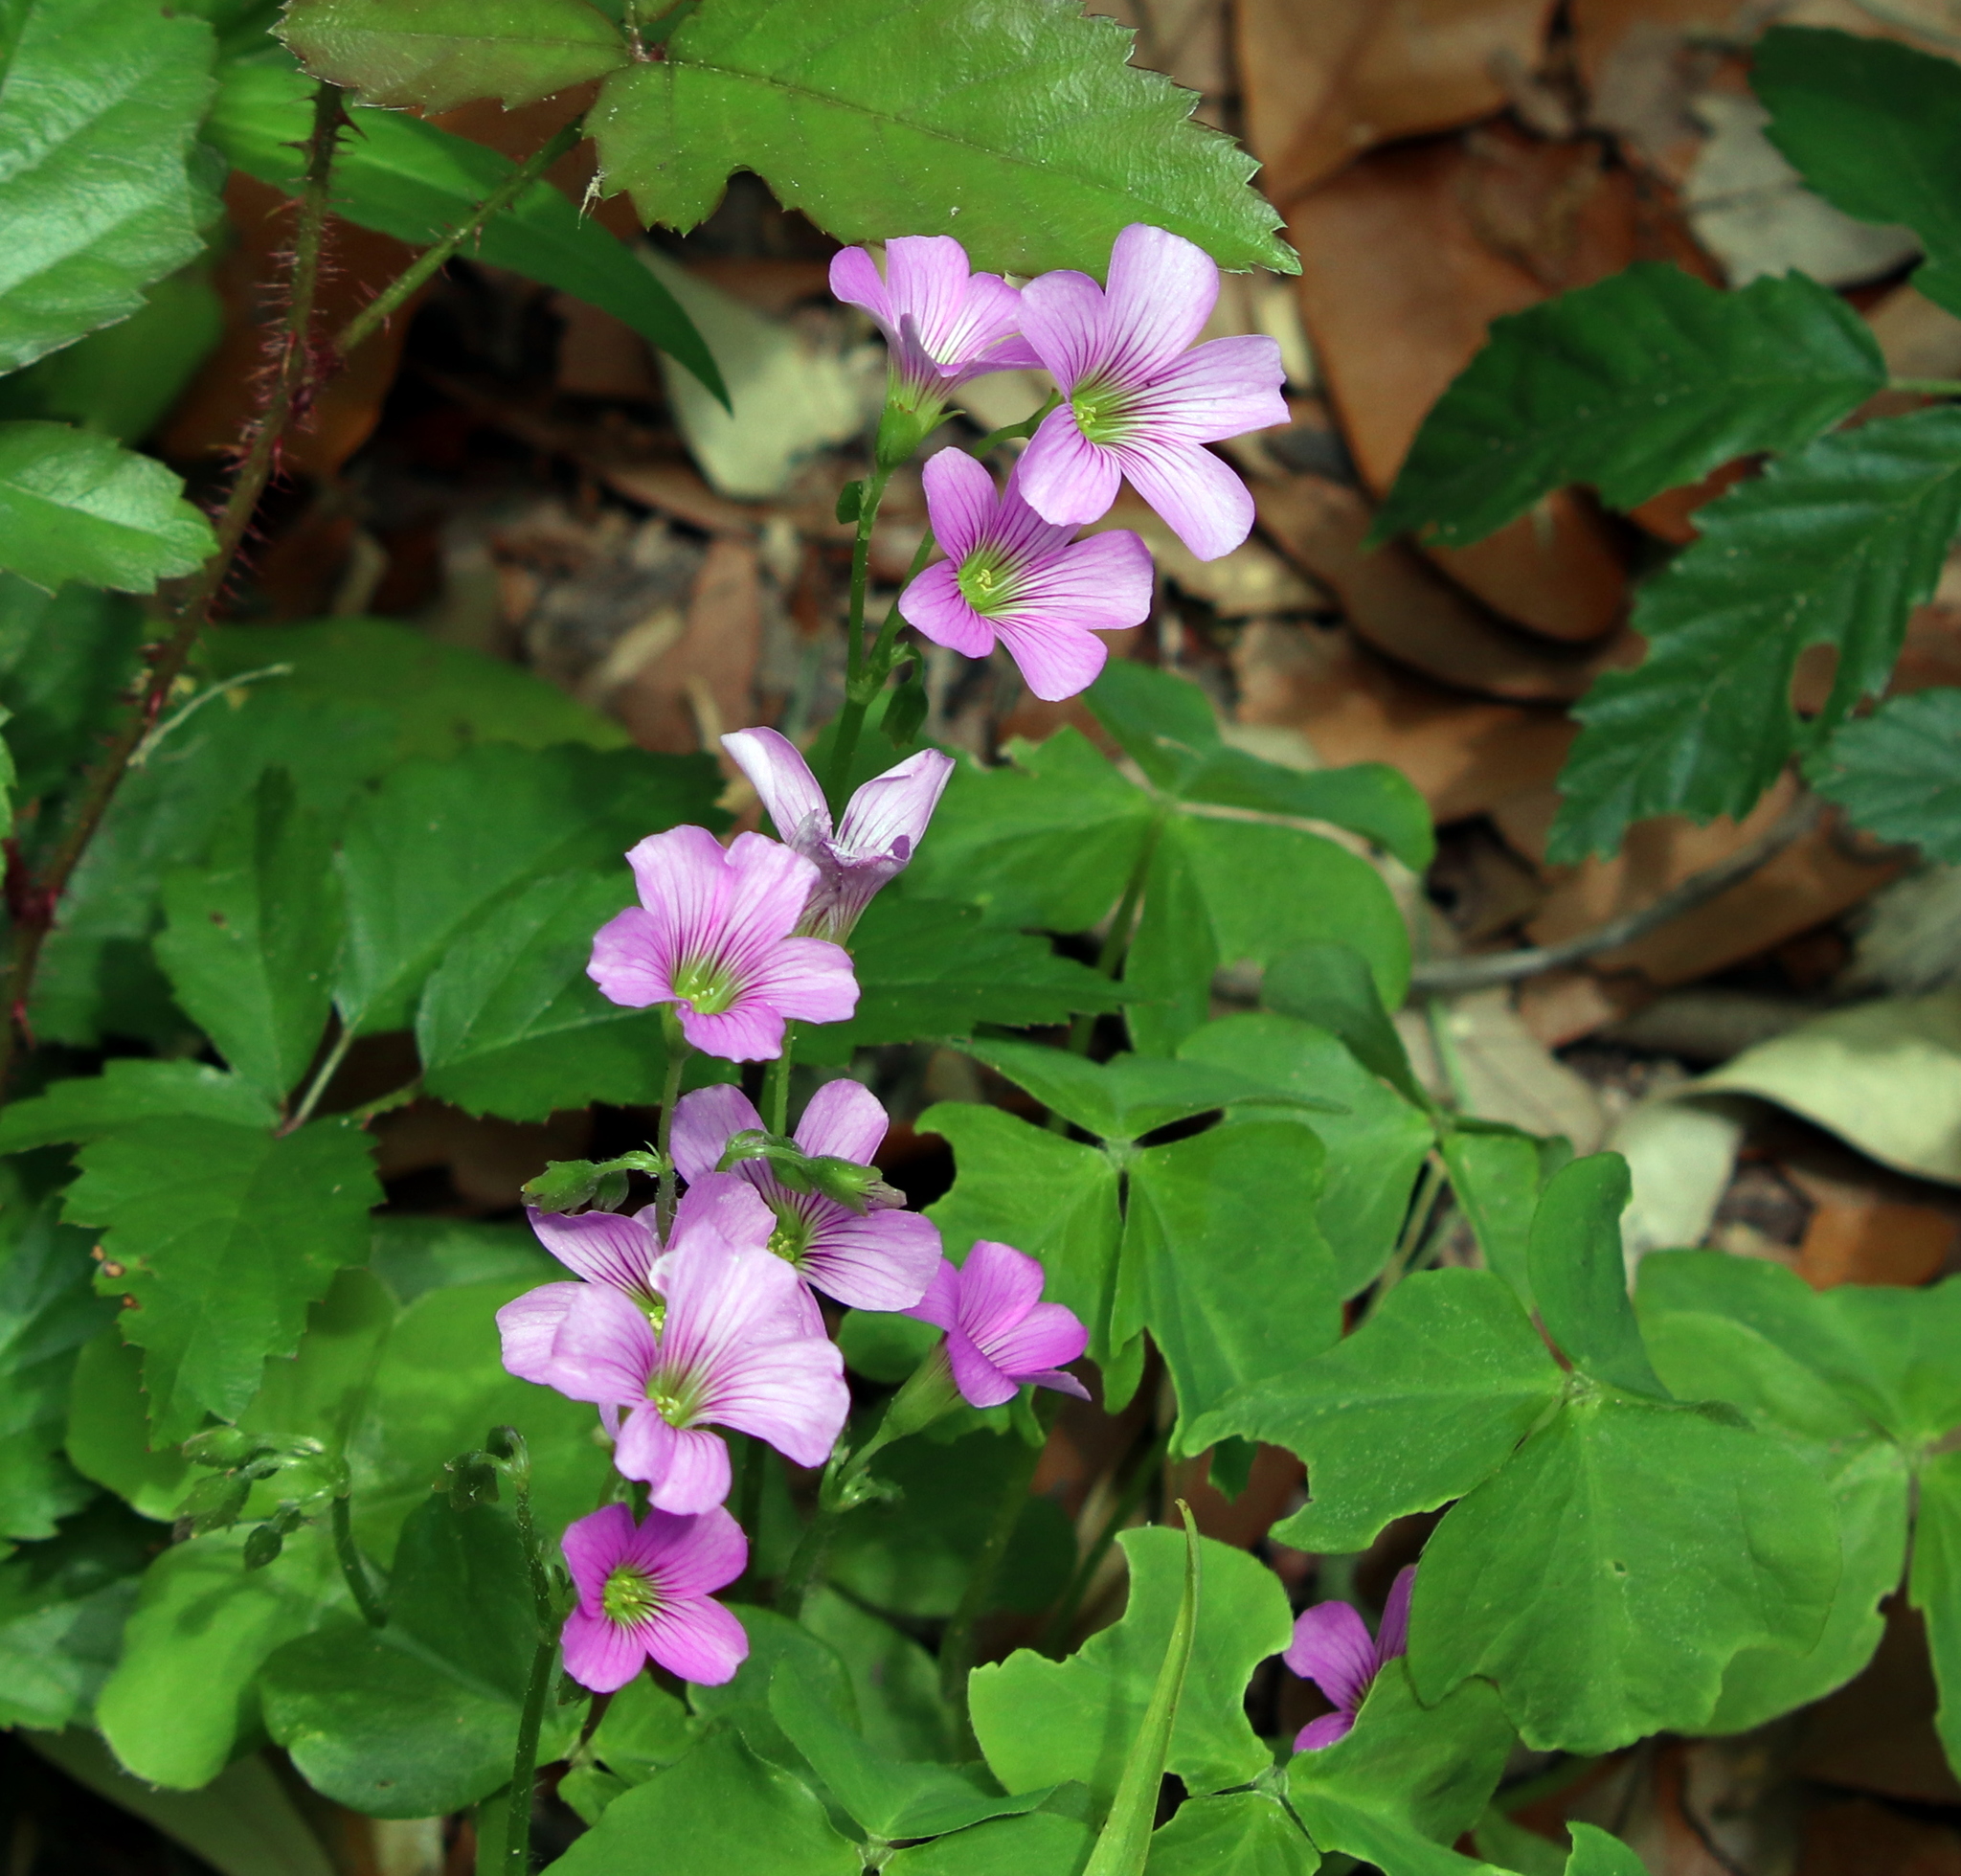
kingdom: Plantae
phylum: Tracheophyta
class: Magnoliopsida
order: Oxalidales
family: Oxalidaceae
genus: Oxalis
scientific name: Oxalis debilis
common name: Large-flowered pink-sorrel
